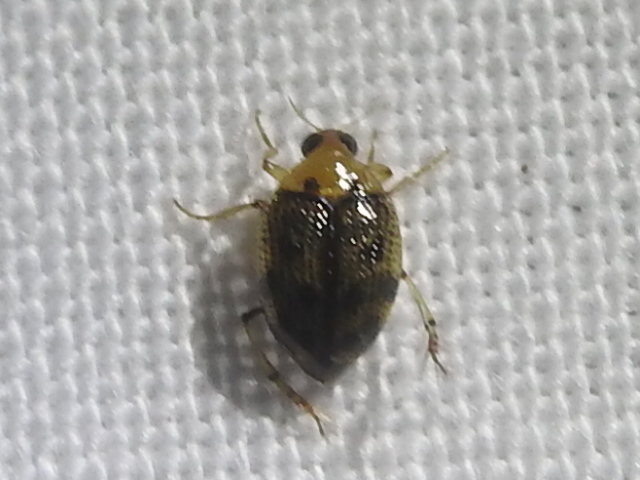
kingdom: Animalia
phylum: Arthropoda
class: Insecta
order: Coleoptera
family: Haliplidae
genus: Peltodytes
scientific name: Peltodytes
